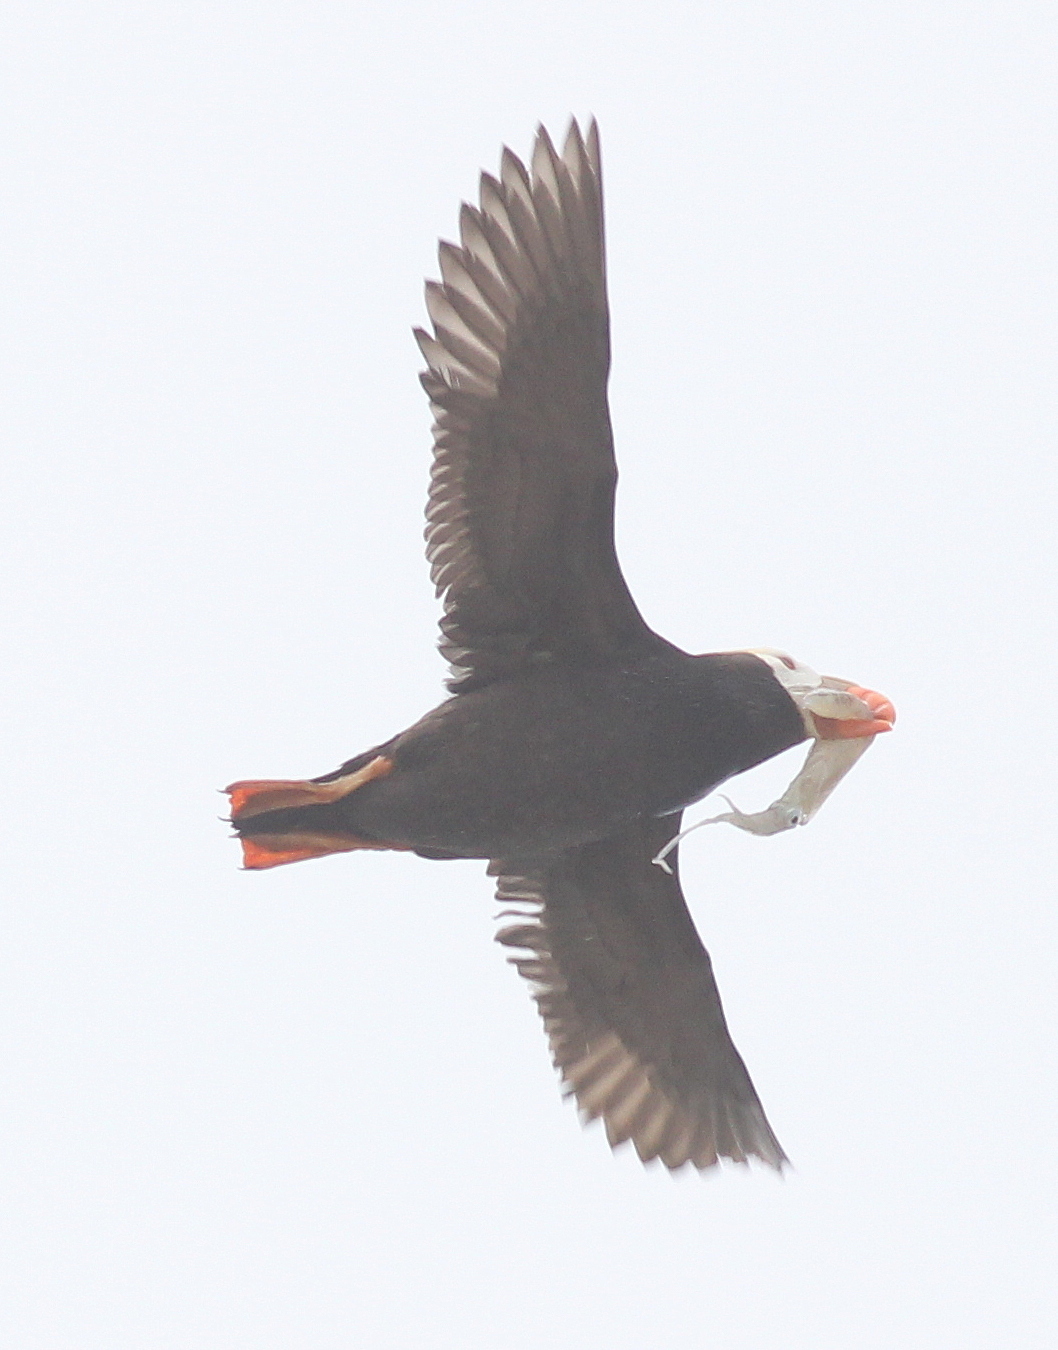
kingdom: Animalia
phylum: Chordata
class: Aves
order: Charadriiformes
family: Alcidae
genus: Fratercula
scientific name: Fratercula cirrhata
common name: Tufted puffin
